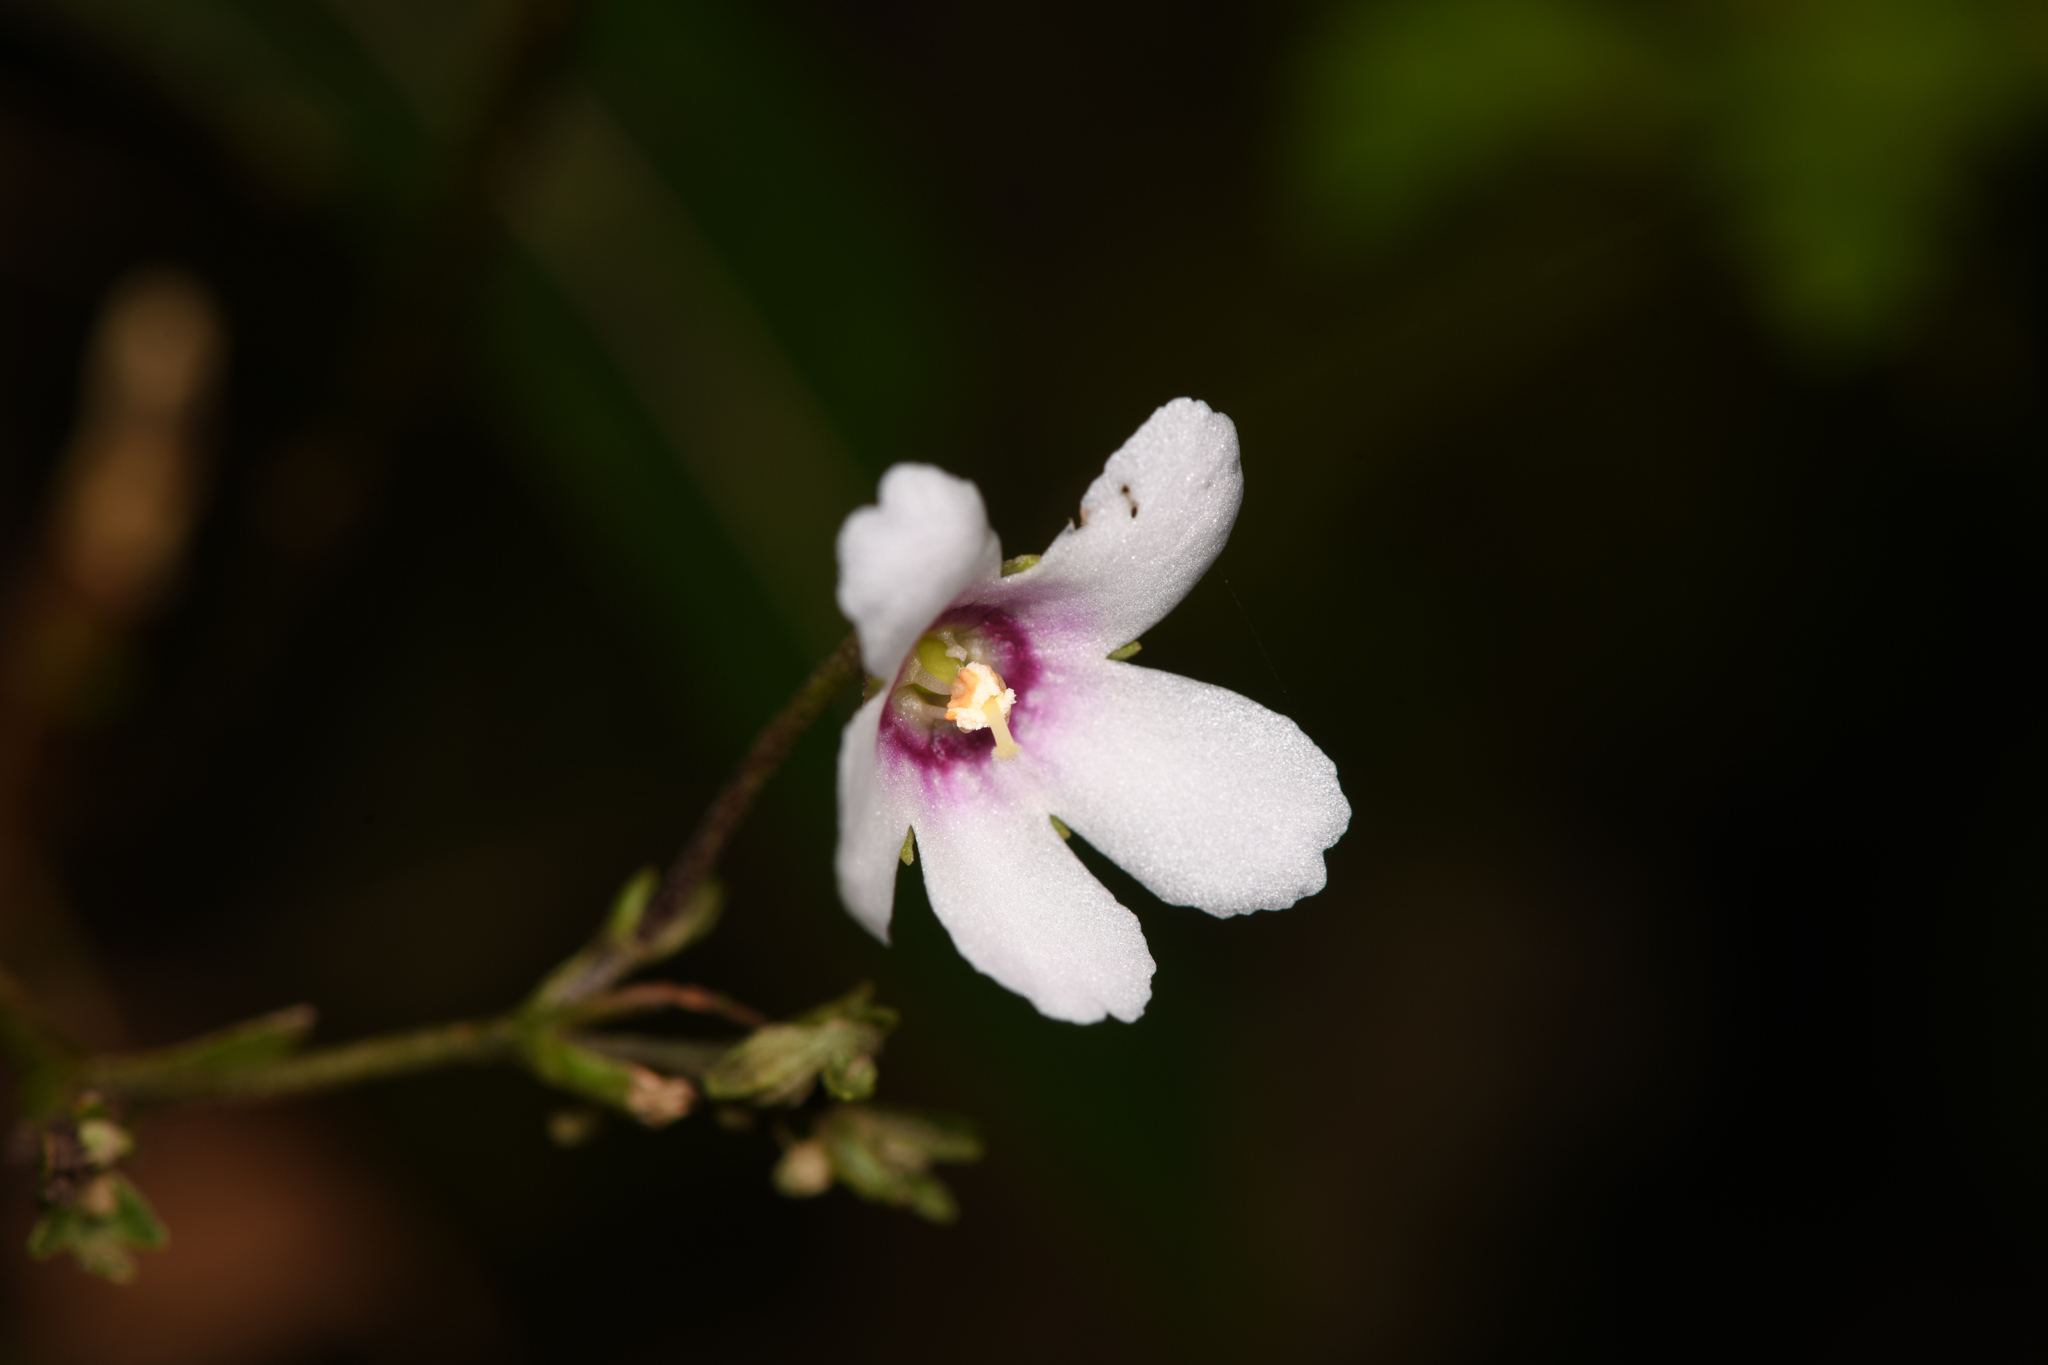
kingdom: Plantae
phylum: Tracheophyta
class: Magnoliopsida
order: Lamiales
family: Gesneriaceae
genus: Napeanthus
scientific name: Napeanthus apodemus
